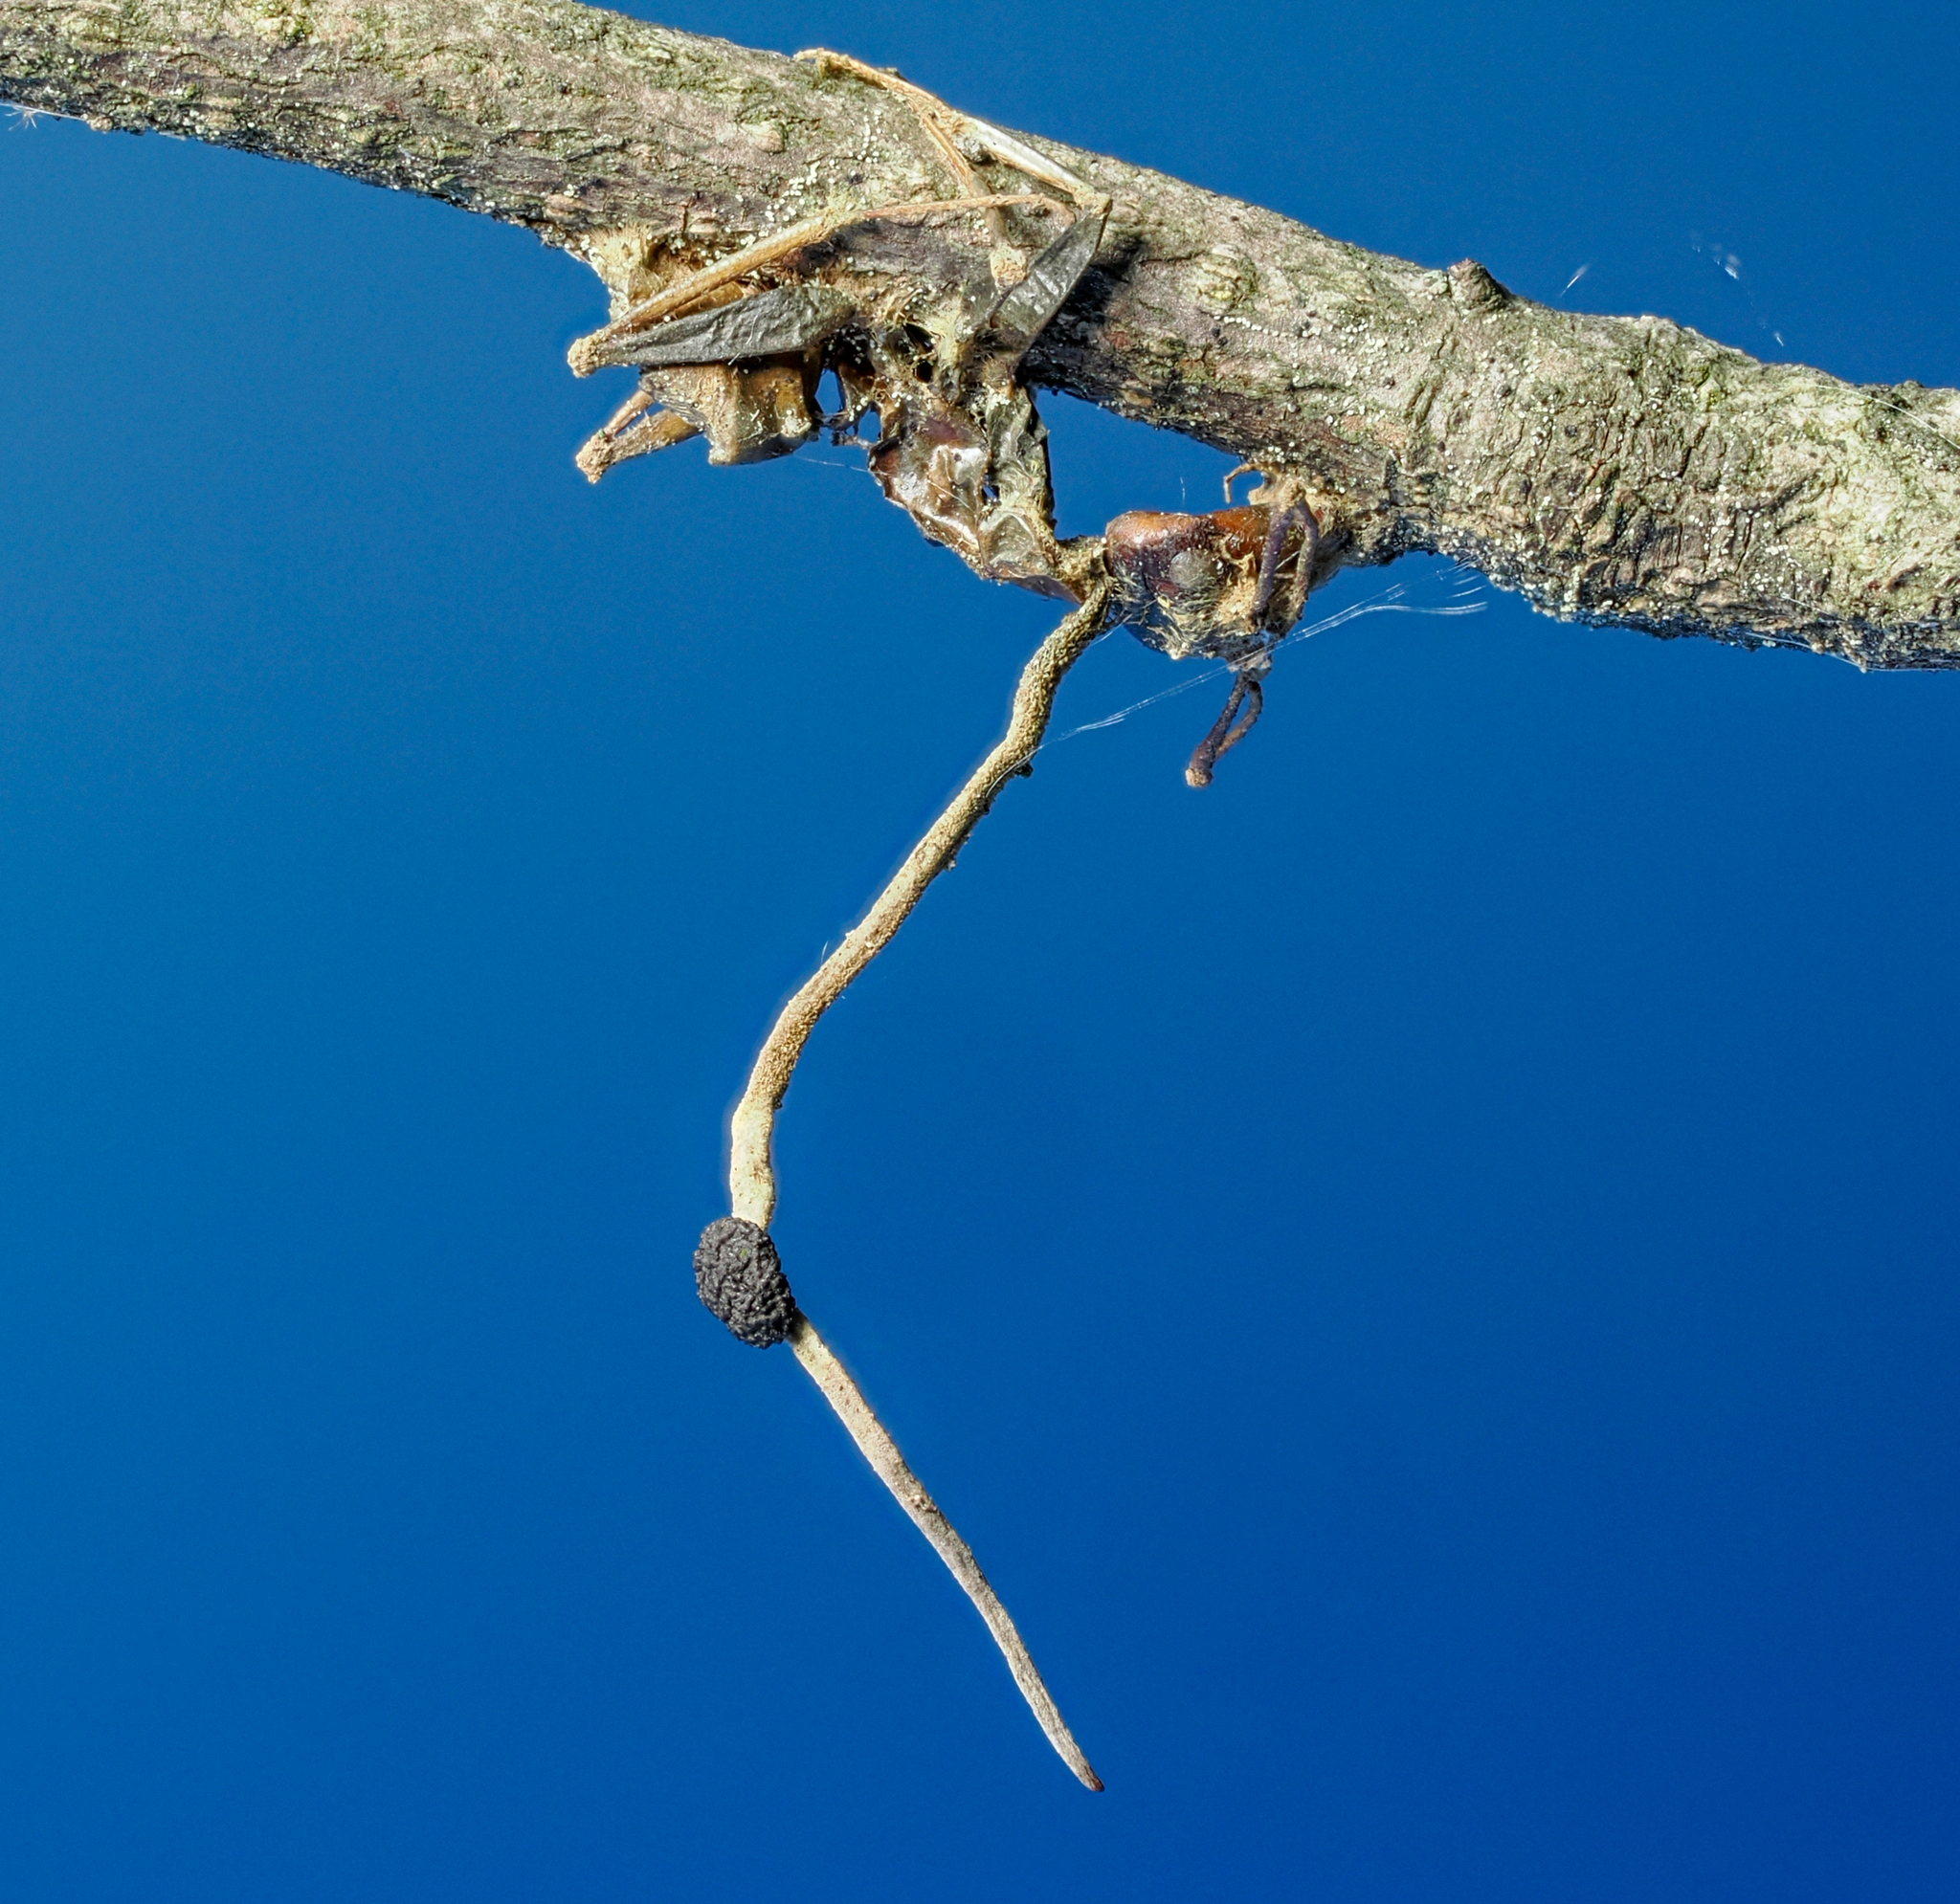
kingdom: Fungi
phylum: Ascomycota
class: Sordariomycetes
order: Hypocreales
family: Ophiocordycipitaceae
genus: Ophiocordyceps
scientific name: Ophiocordyceps kimflemingiae
